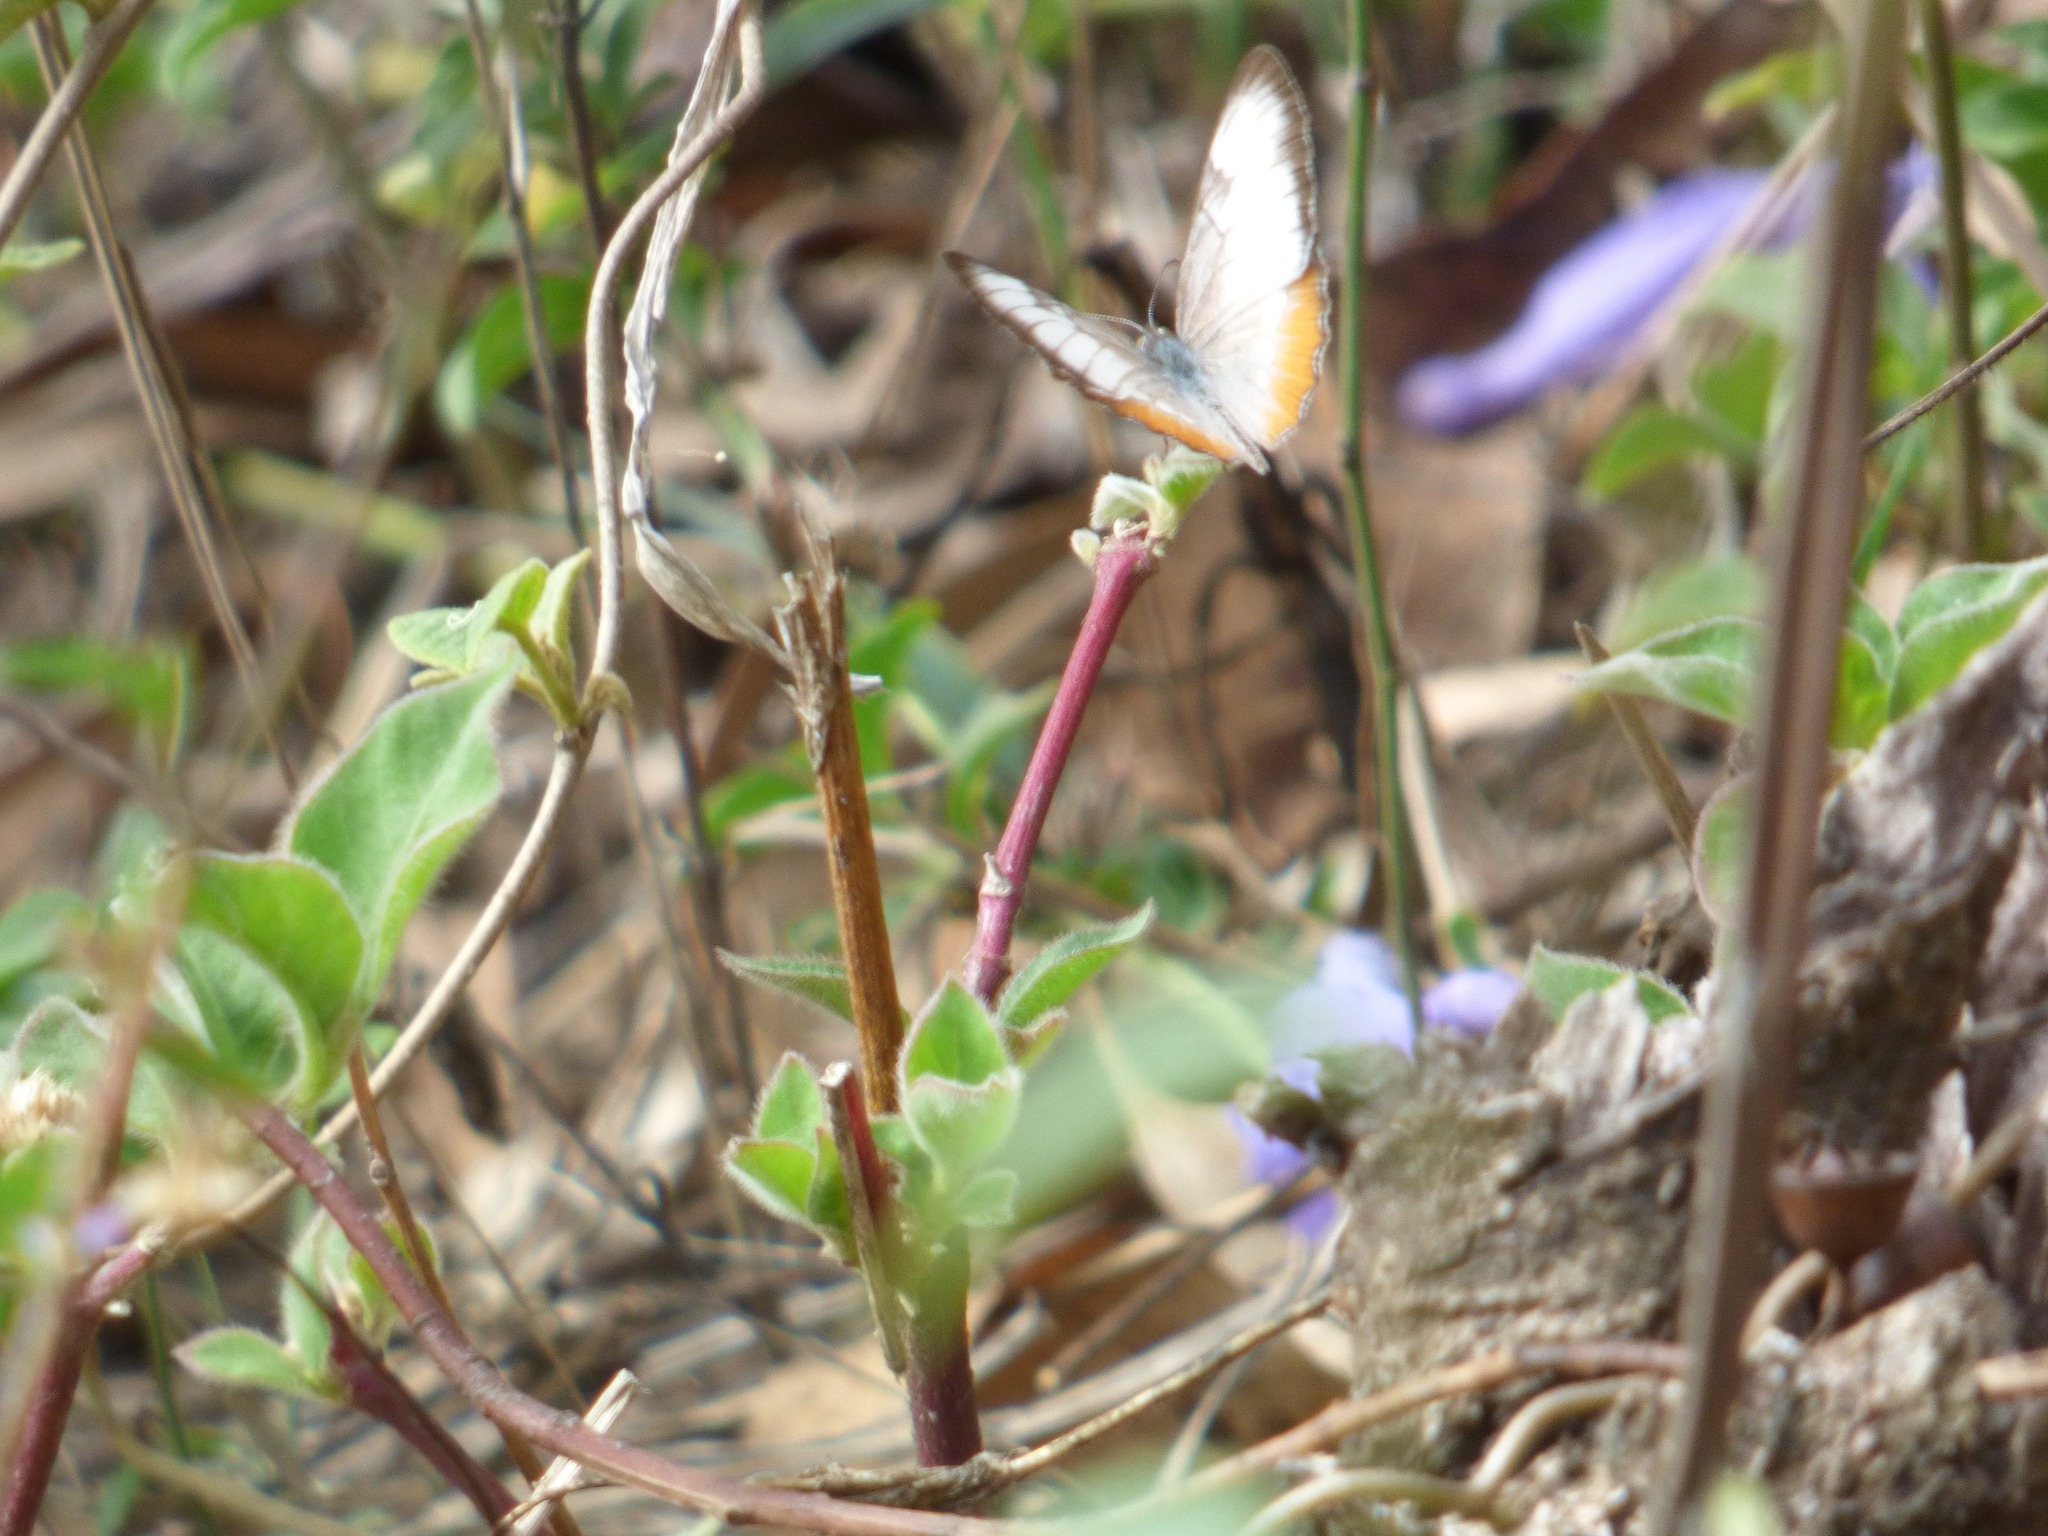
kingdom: Animalia
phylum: Arthropoda
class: Insecta
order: Lepidoptera
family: Nymphalidae
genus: Mestra
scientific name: Mestra amymone
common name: Common mestra
